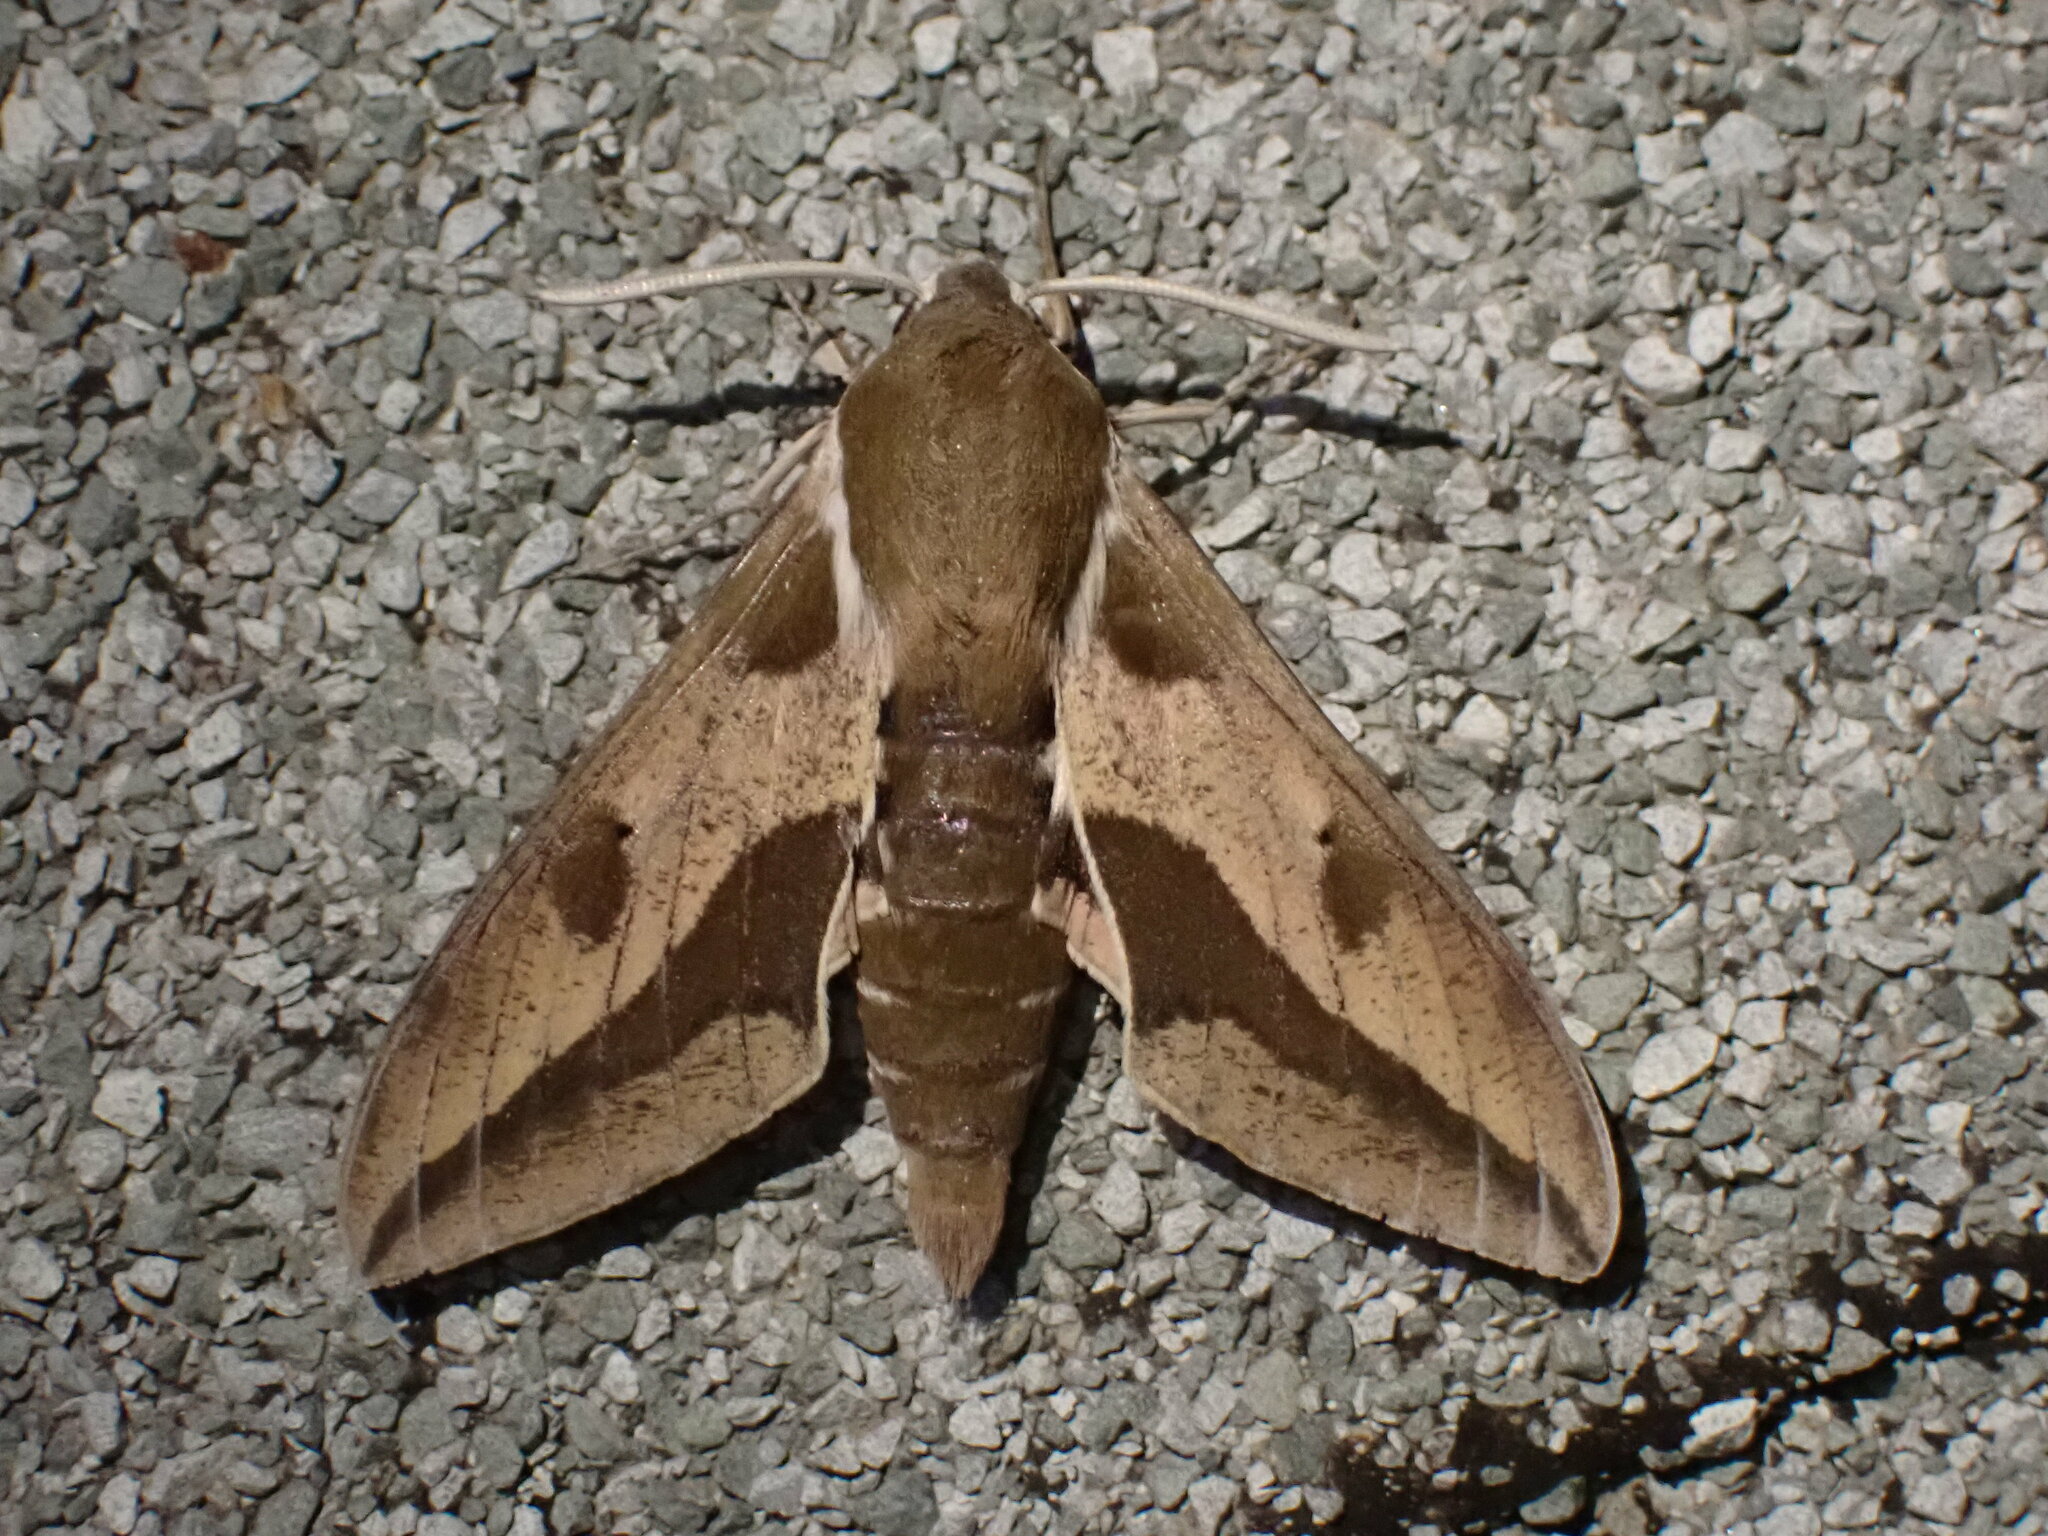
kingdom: Animalia
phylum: Arthropoda
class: Insecta
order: Lepidoptera
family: Sphingidae
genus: Hyles
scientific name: Hyles euphorbiae
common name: Spurge hawk-moth
